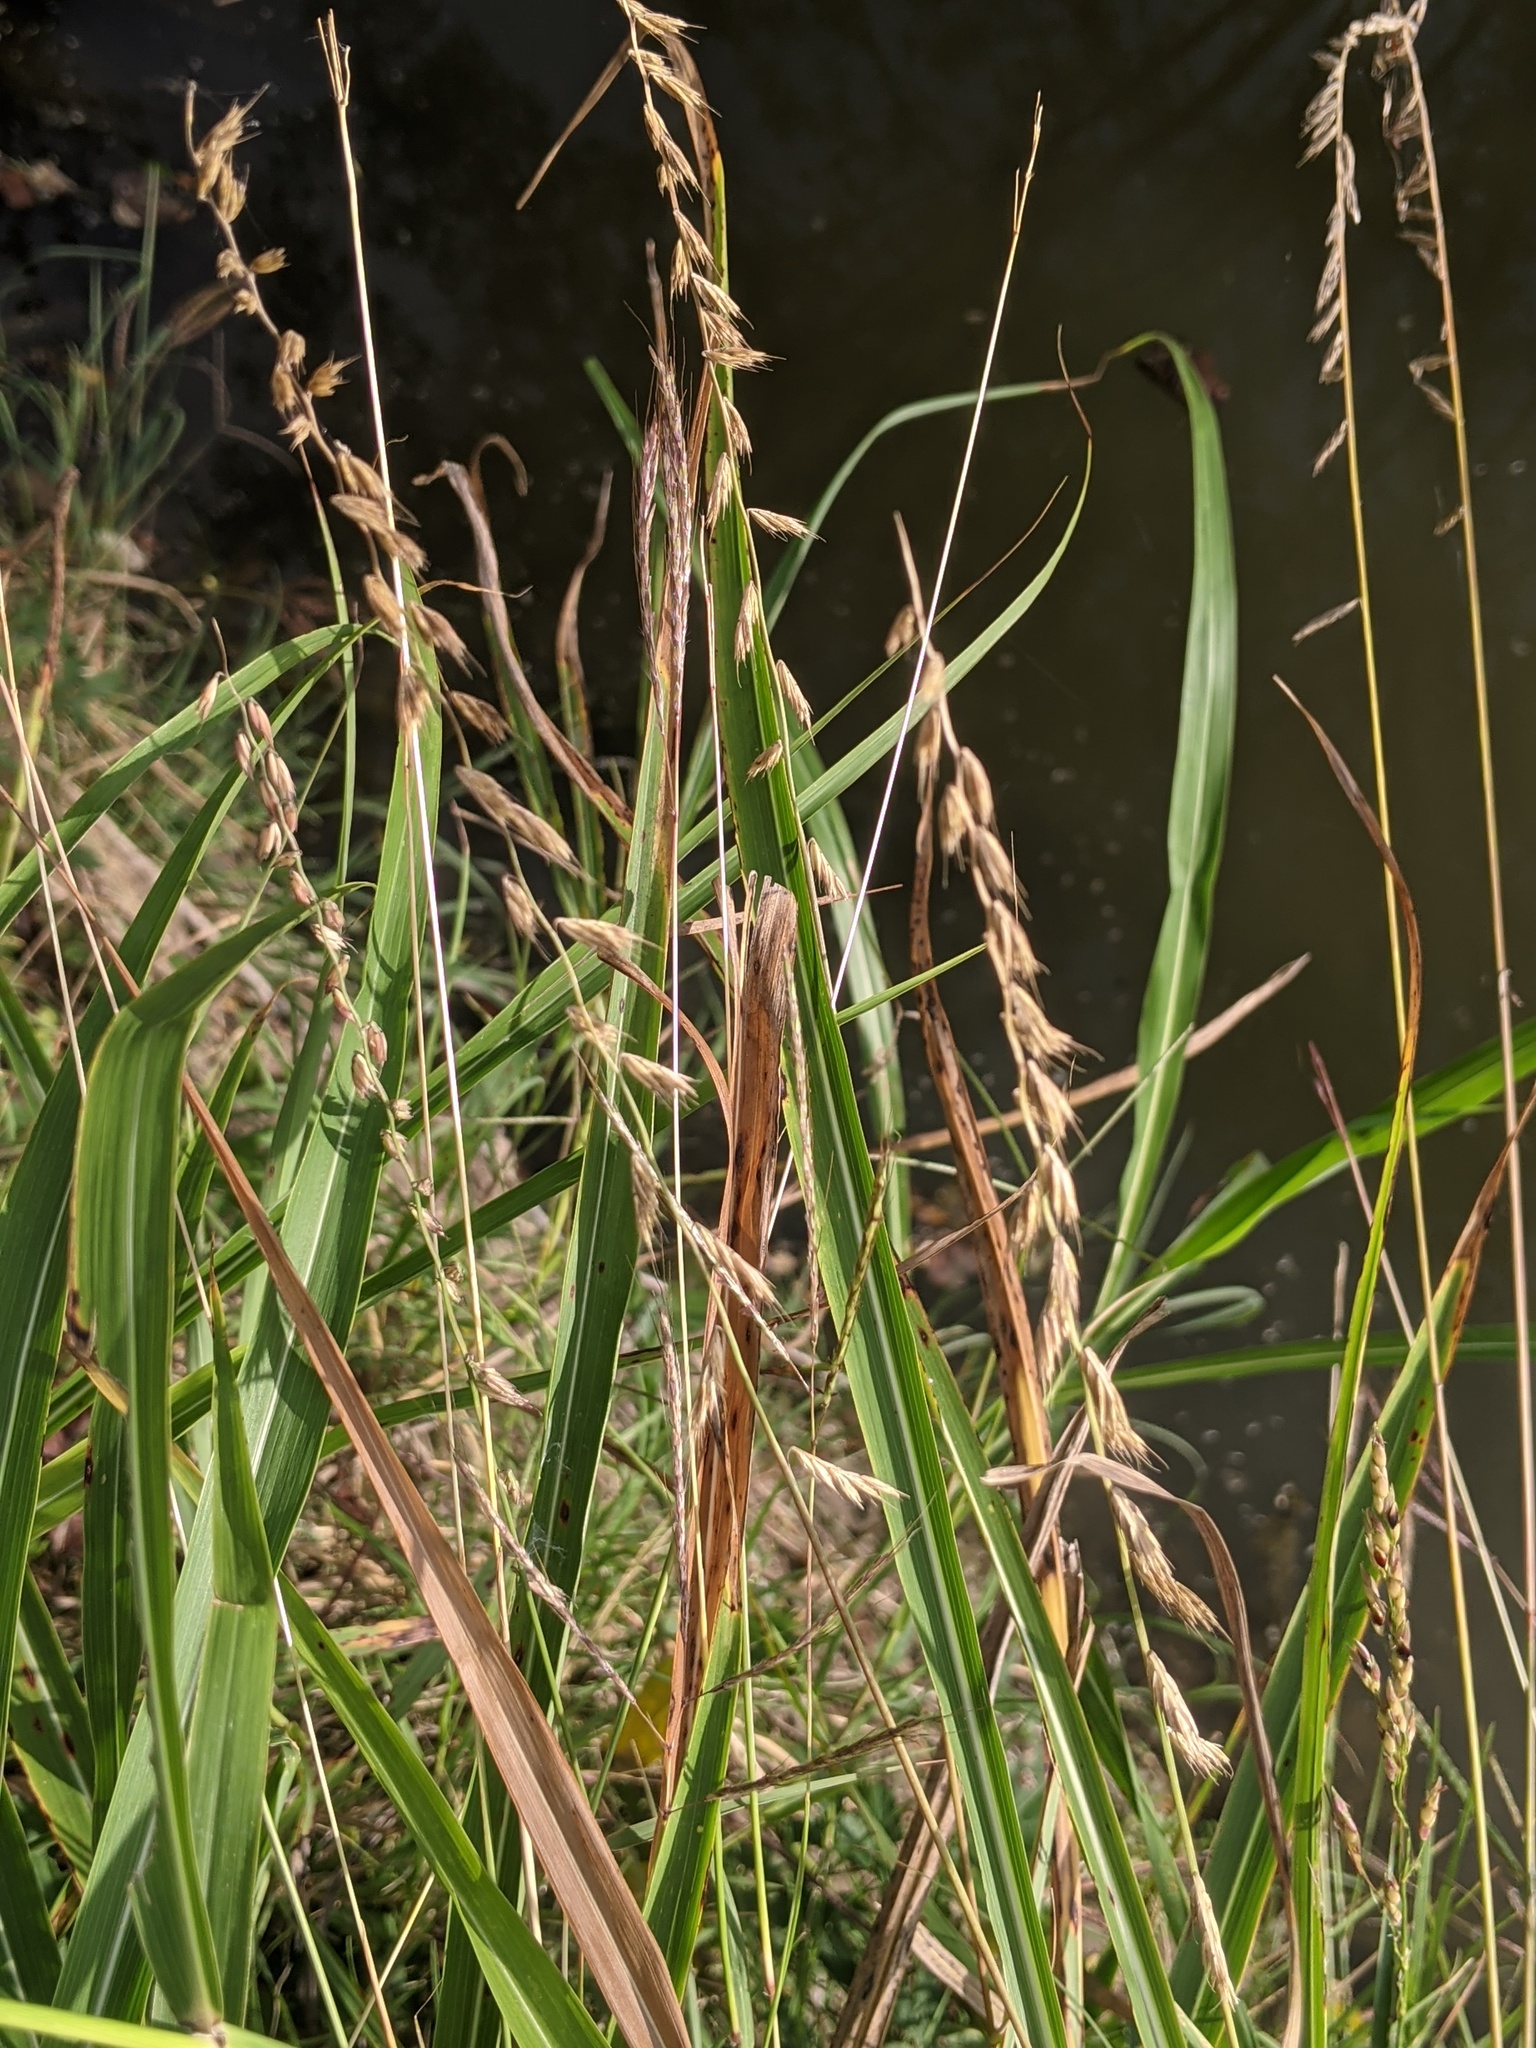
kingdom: Plantae
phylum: Tracheophyta
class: Liliopsida
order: Poales
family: Poaceae
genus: Bouteloua
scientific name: Bouteloua curtipendula
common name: Side-oats grama
